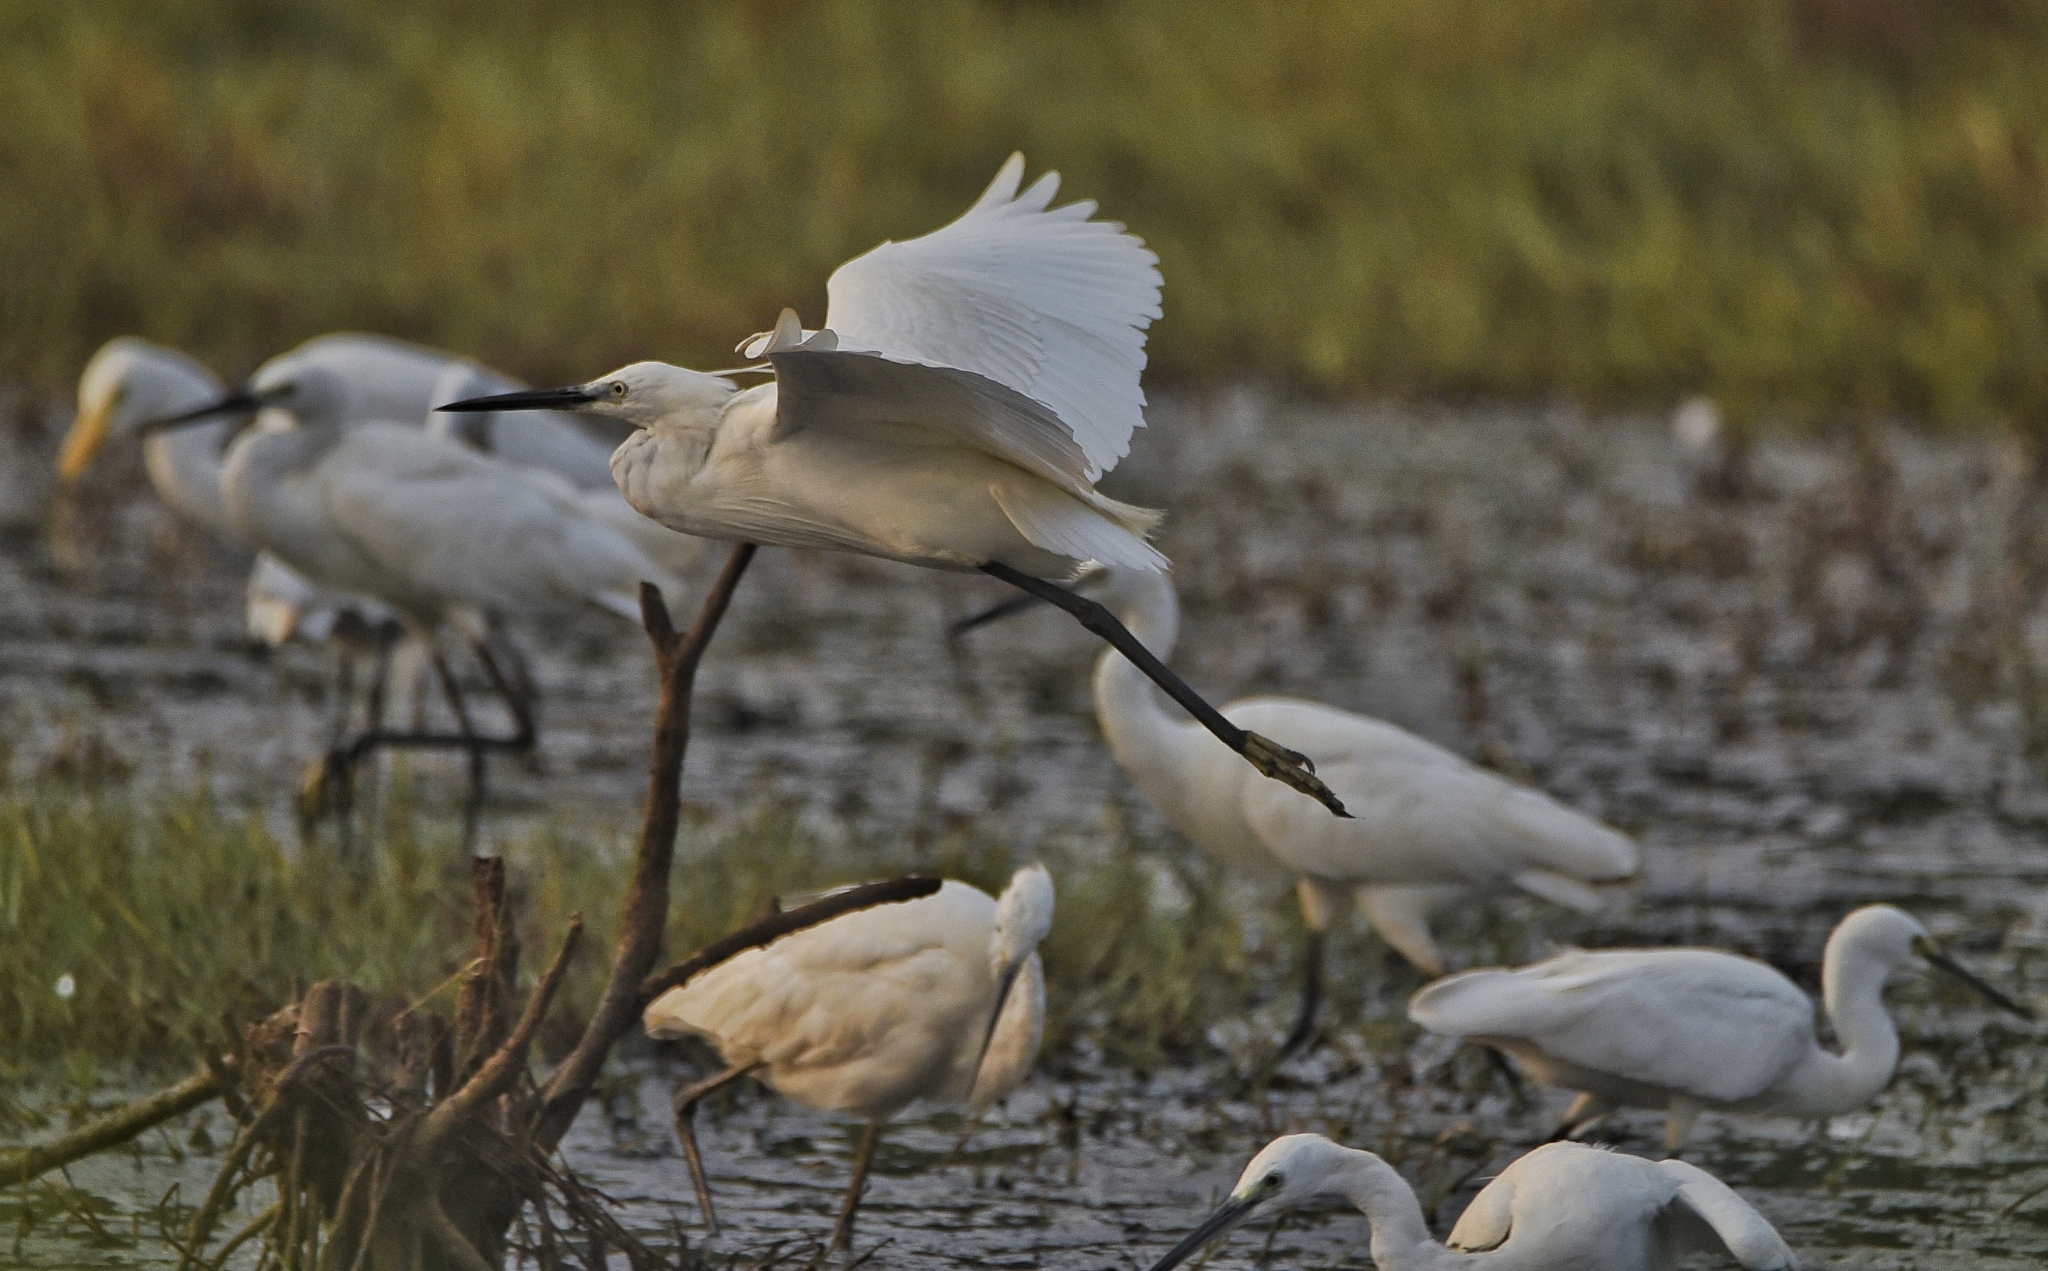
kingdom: Animalia
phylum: Chordata
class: Aves
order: Pelecaniformes
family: Ardeidae
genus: Egretta
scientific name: Egretta garzetta
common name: Little egret
